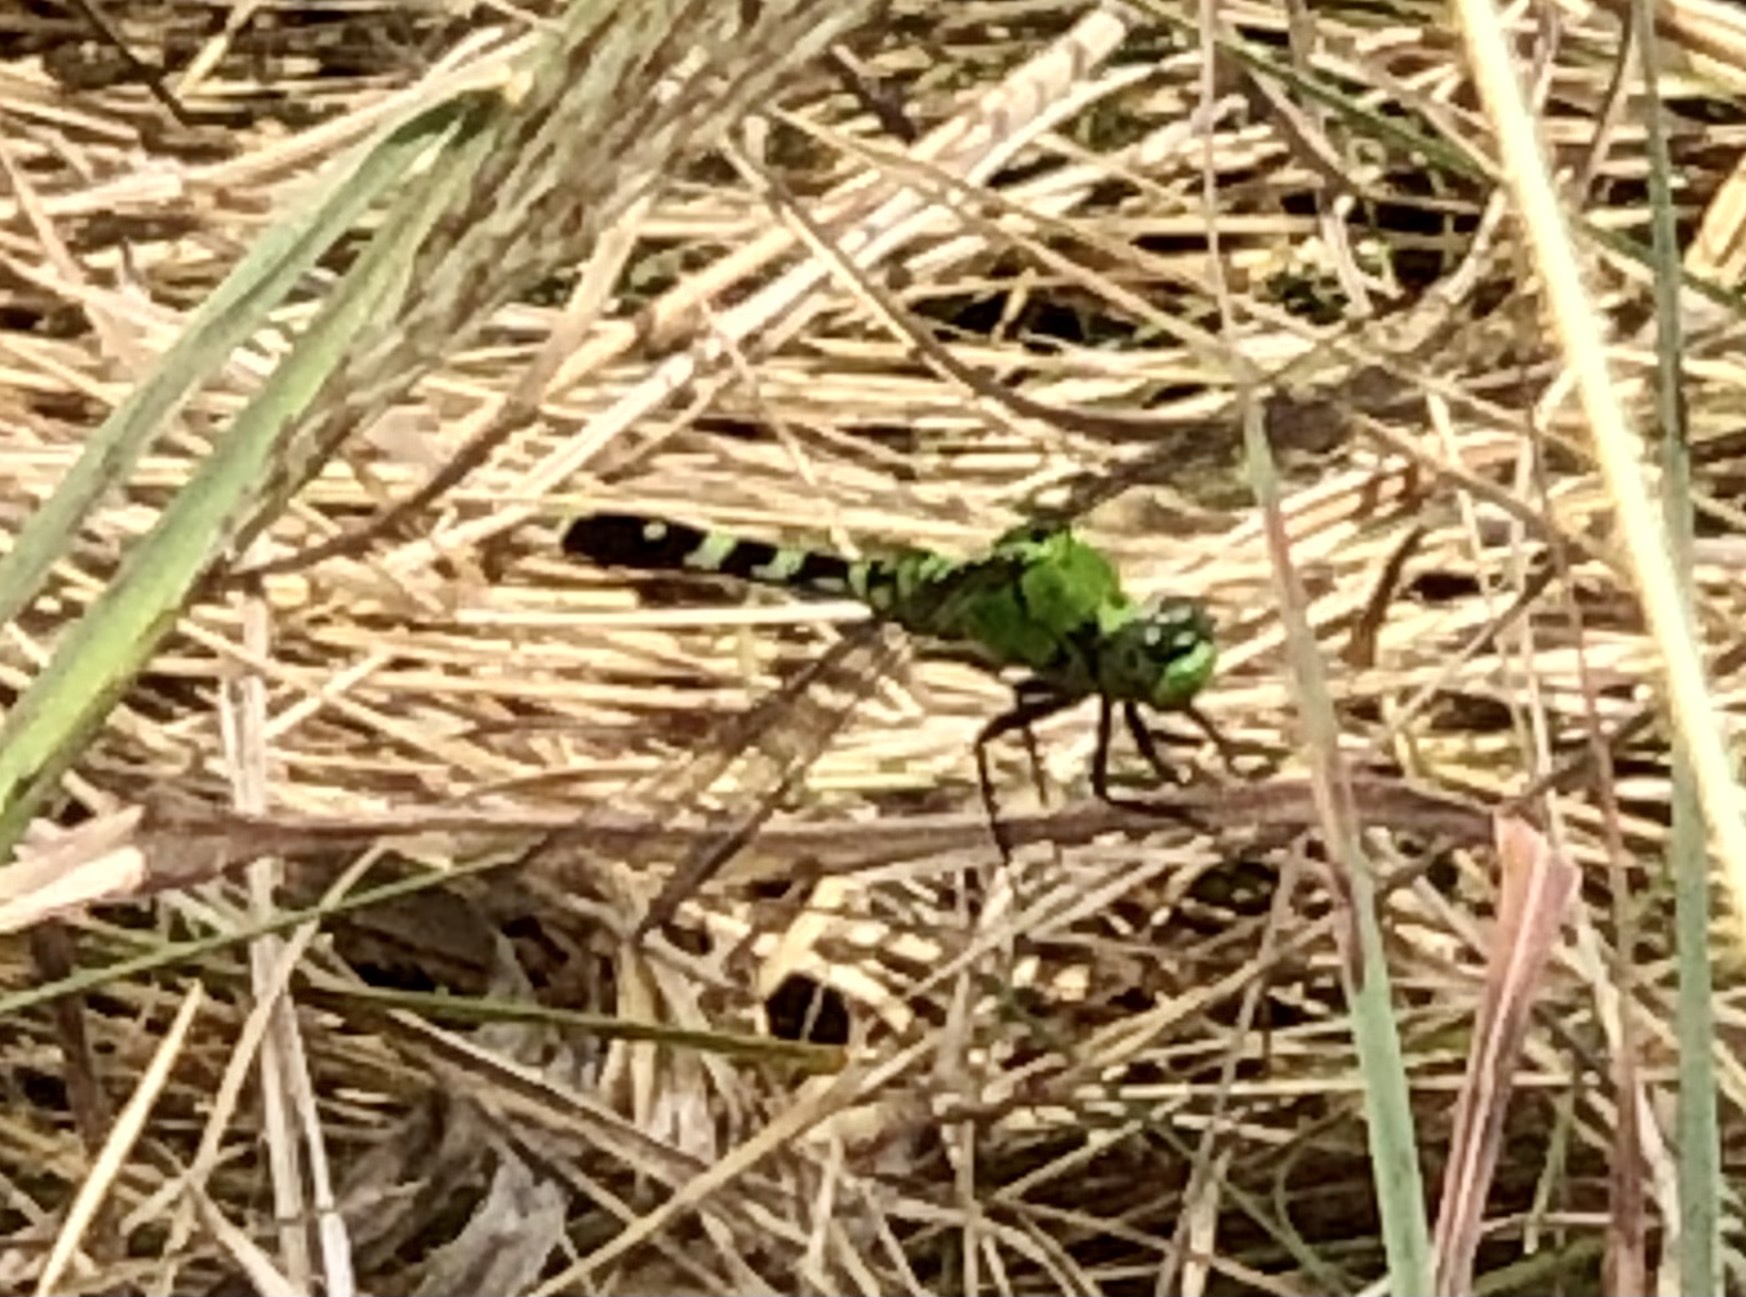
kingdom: Animalia
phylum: Arthropoda
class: Insecta
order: Odonata
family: Libellulidae
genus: Erythemis
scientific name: Erythemis simplicicollis
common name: Eastern pondhawk
